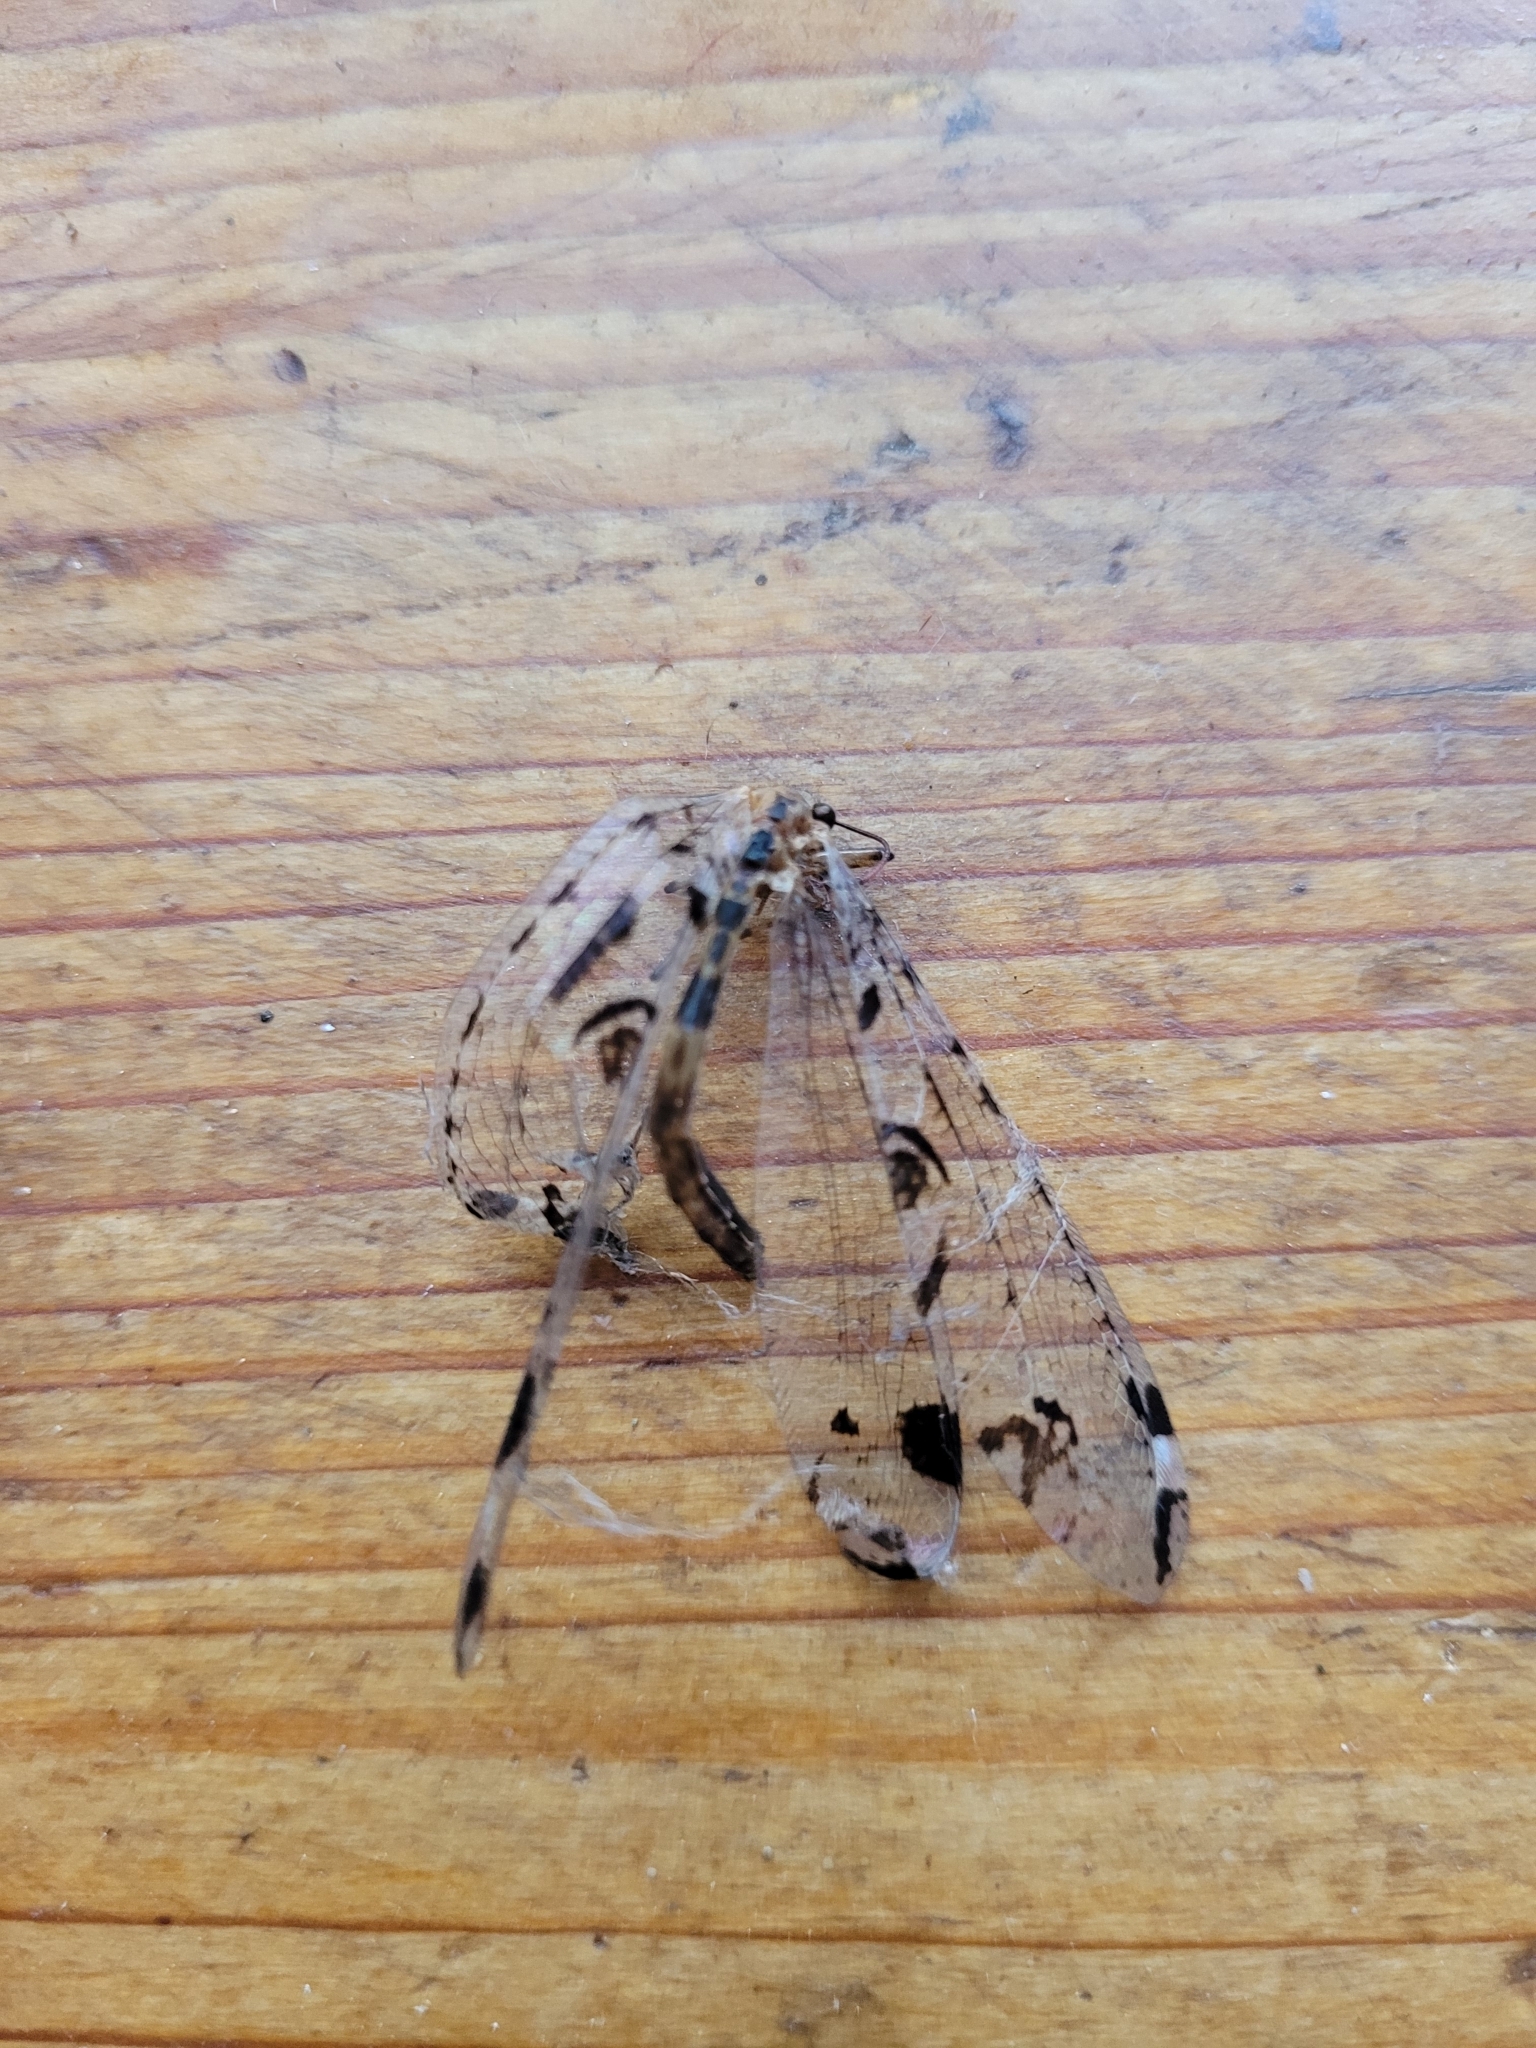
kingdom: Animalia
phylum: Arthropoda
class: Insecta
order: Neuroptera
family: Myrmeleontidae
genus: Dendroleon
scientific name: Dendroleon pantherinus
